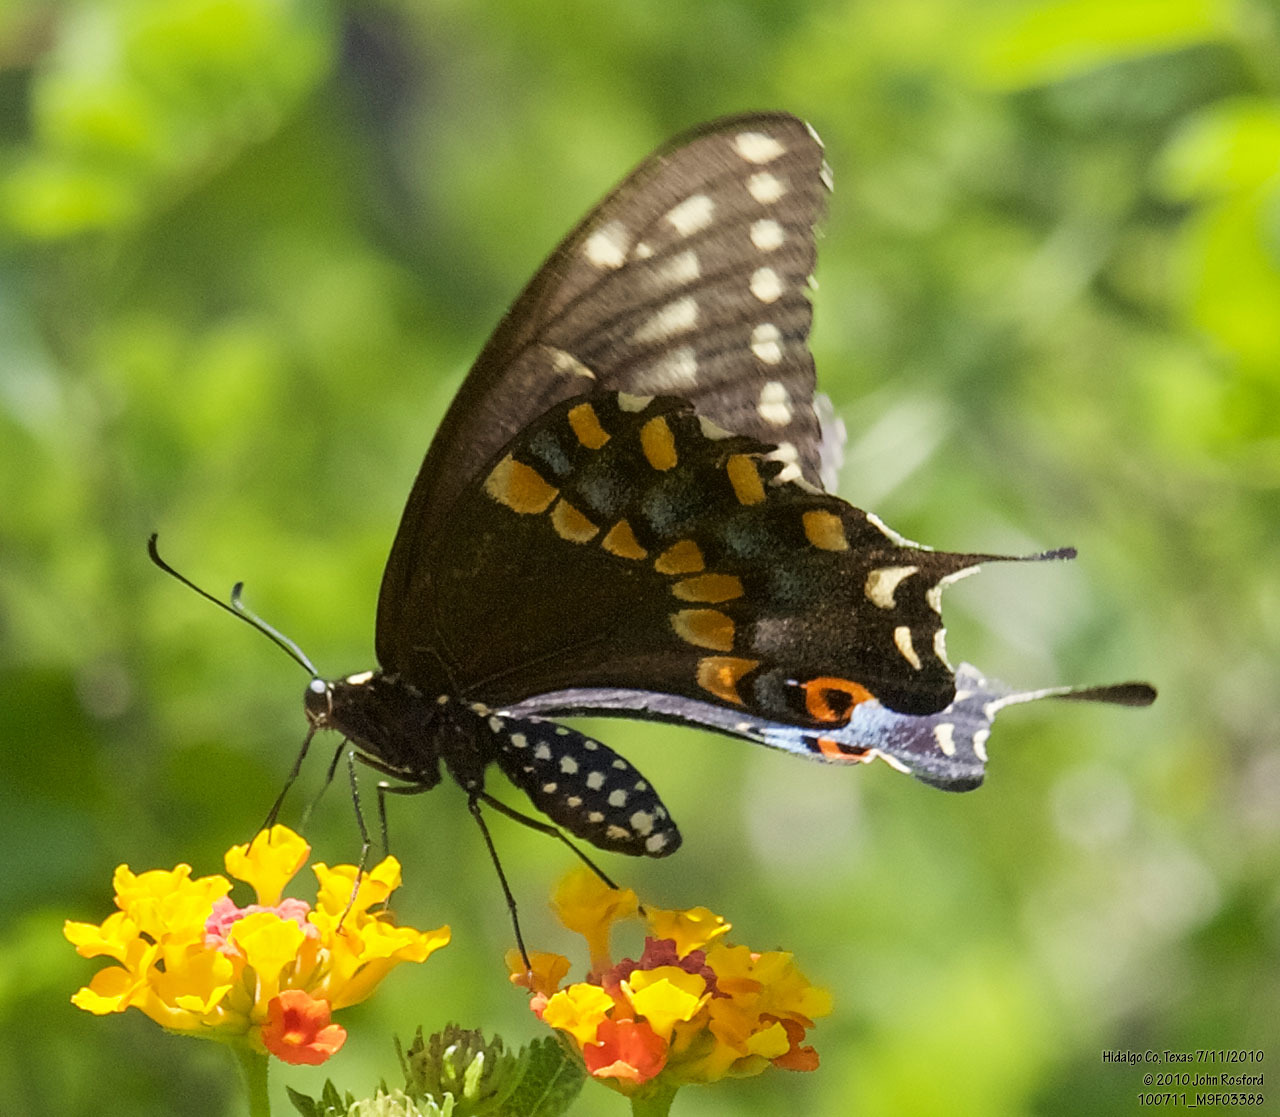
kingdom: Animalia
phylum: Arthropoda
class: Insecta
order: Lepidoptera
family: Papilionidae
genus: Papilio
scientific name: Papilio polyxenes
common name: Black swallowtail
